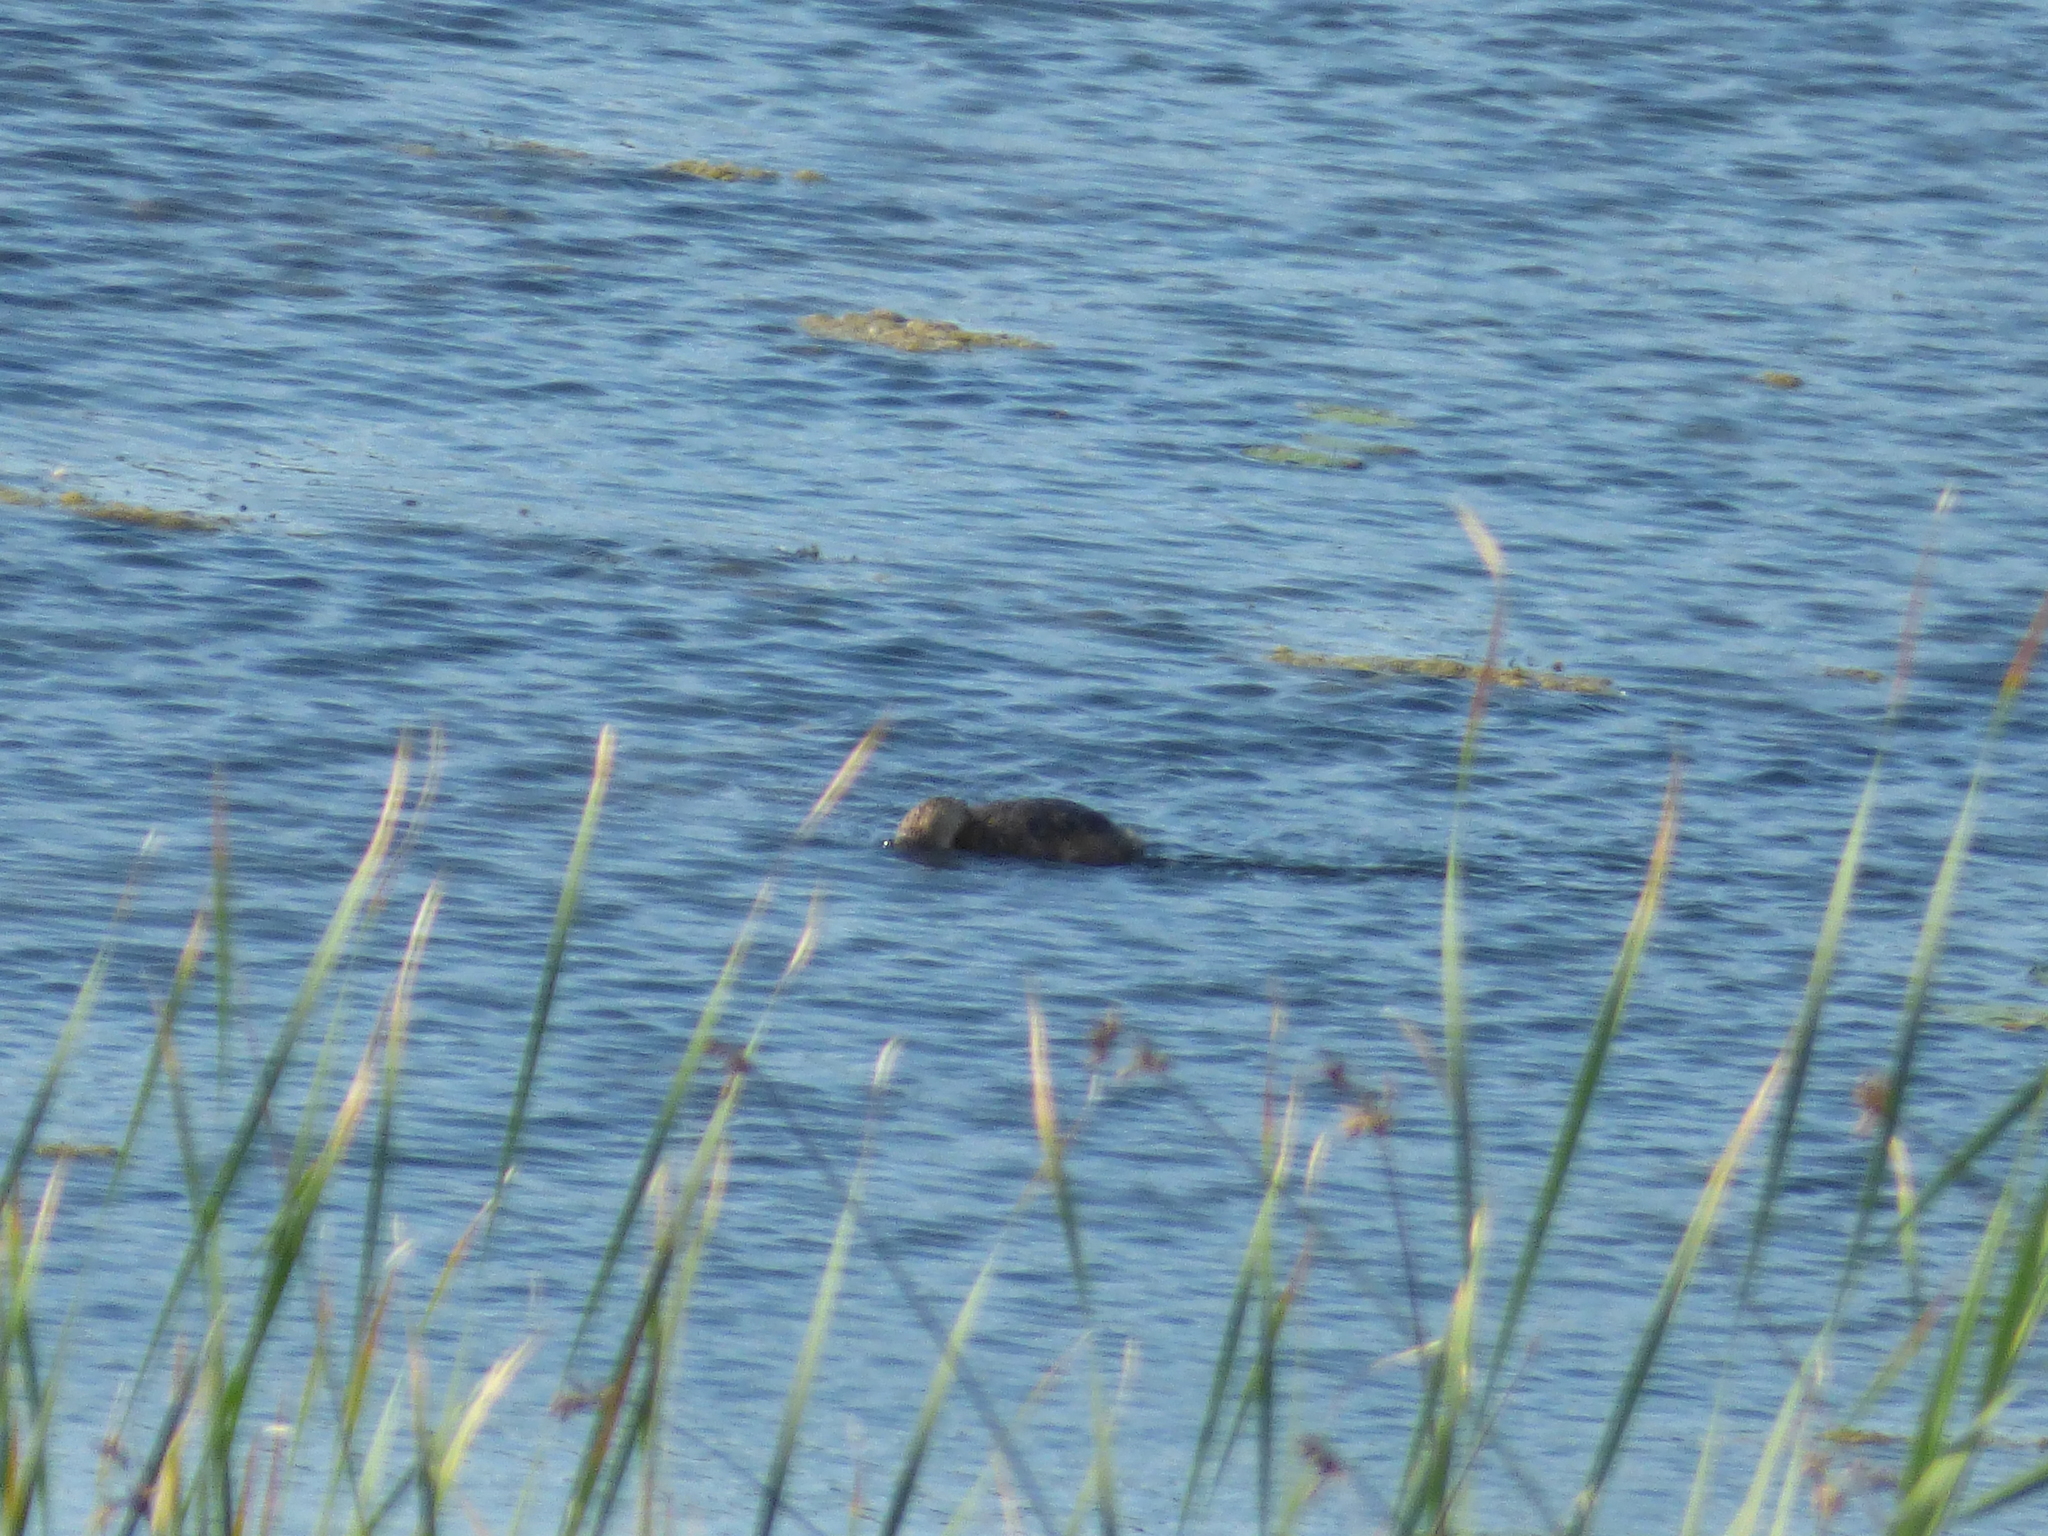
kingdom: Animalia
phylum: Chordata
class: Aves
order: Podicipediformes
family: Podicipedidae
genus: Podilymbus
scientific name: Podilymbus podiceps
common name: Pied-billed grebe
